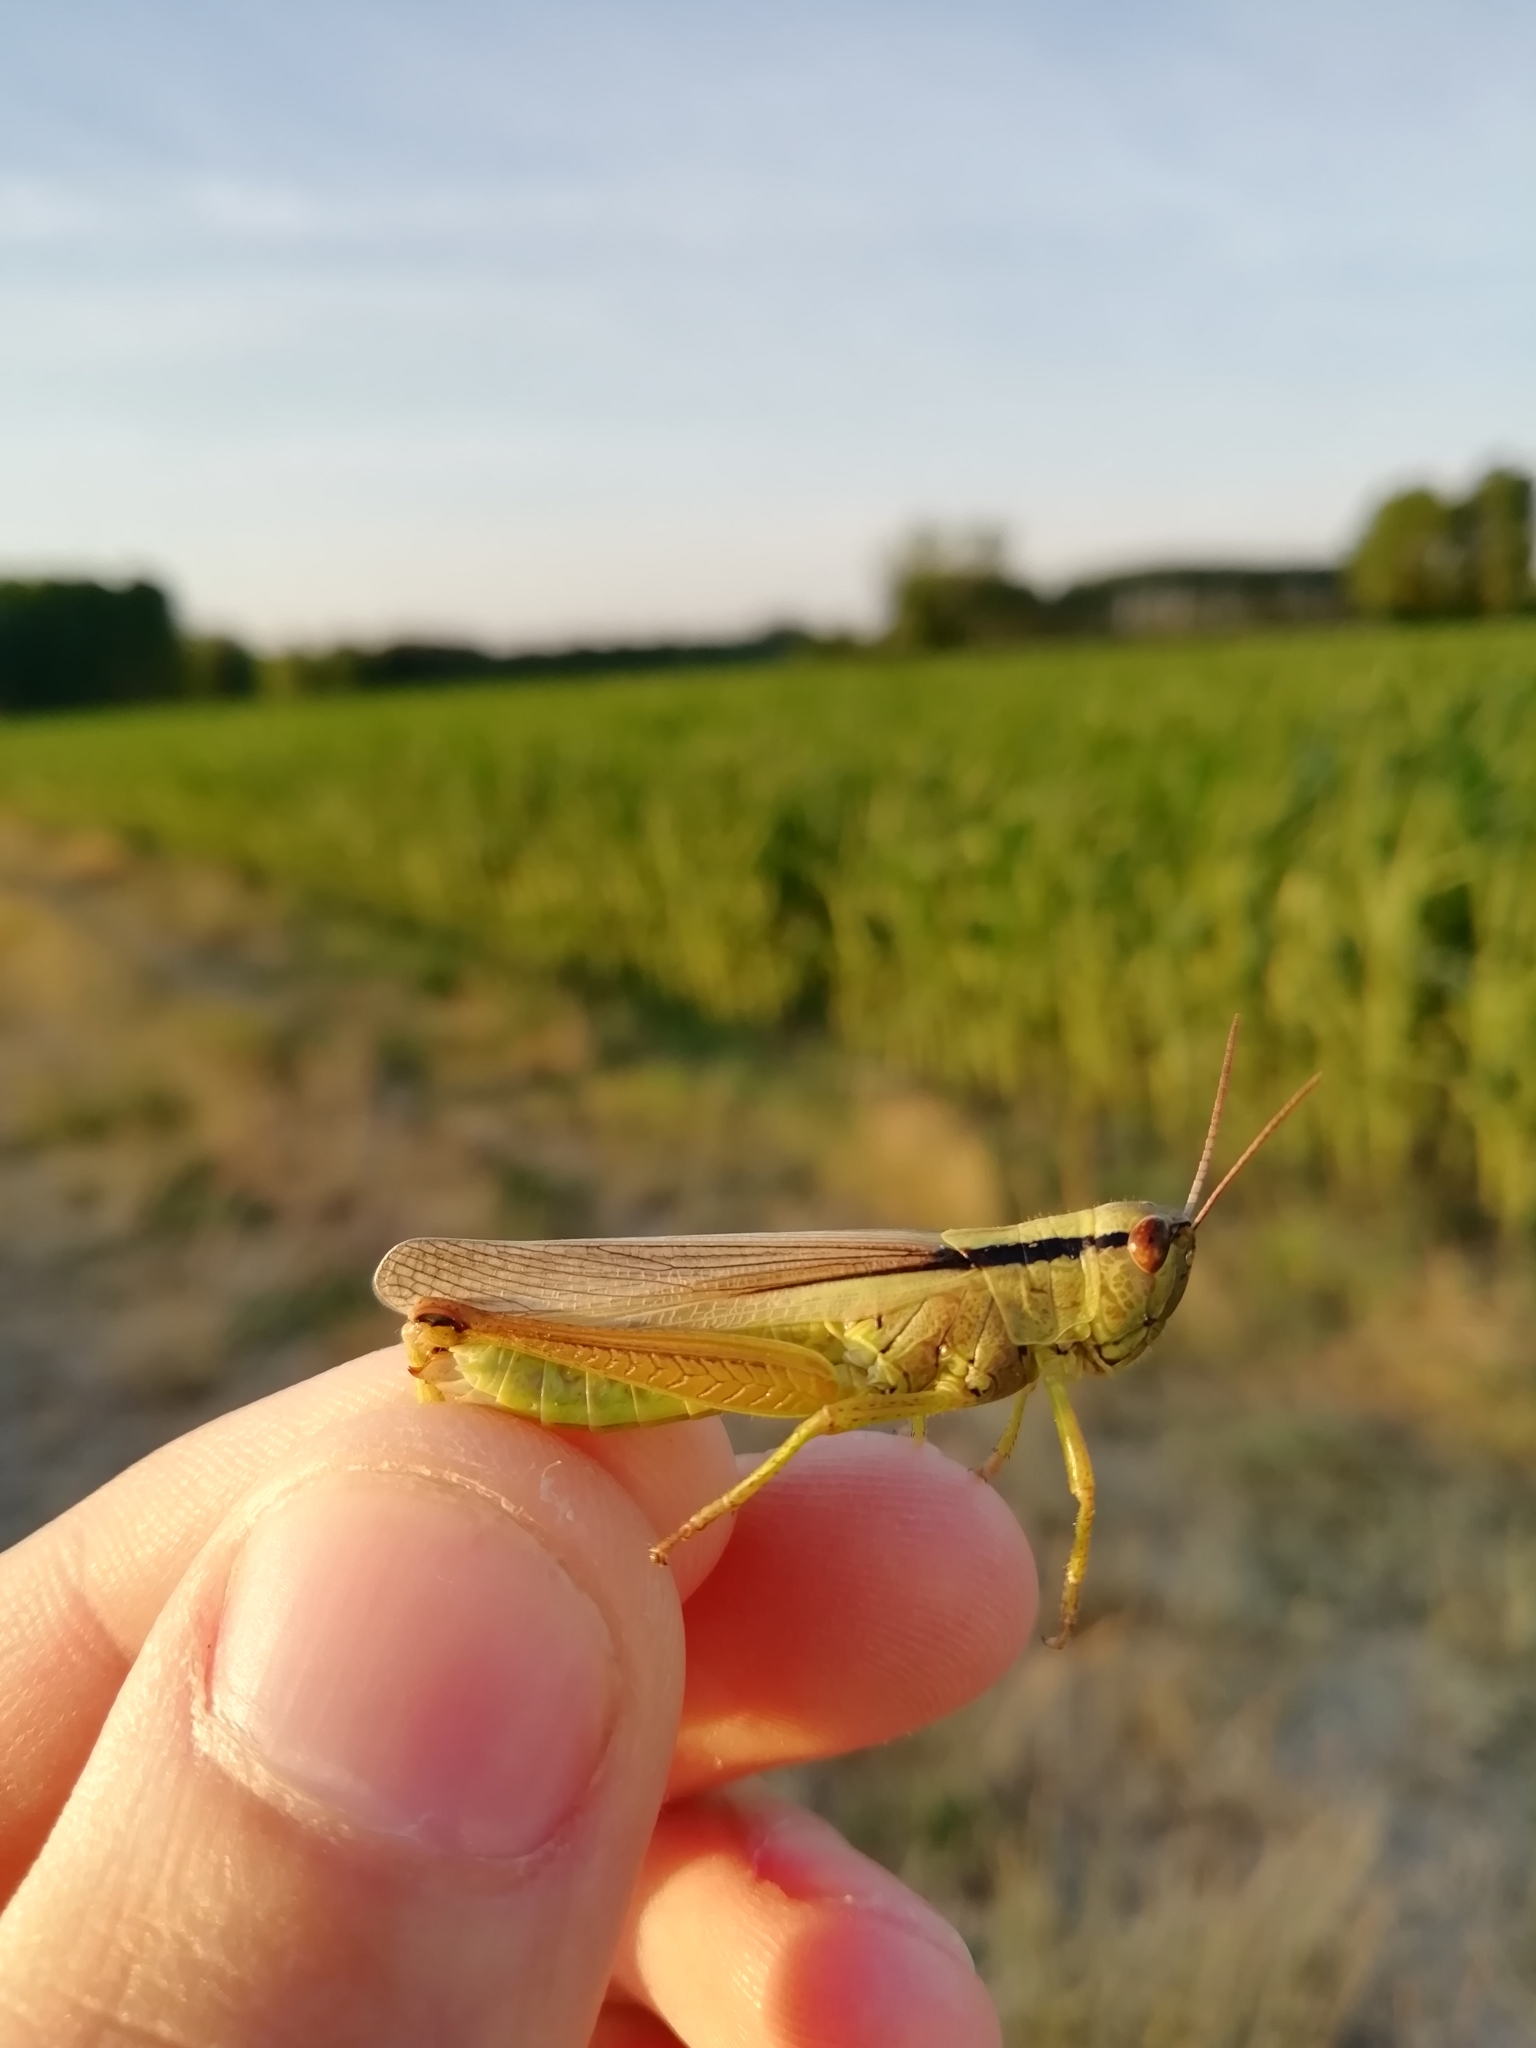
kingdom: Animalia
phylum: Arthropoda
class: Insecta
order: Orthoptera
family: Acrididae
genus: Mecostethus
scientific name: Mecostethus parapleurus
